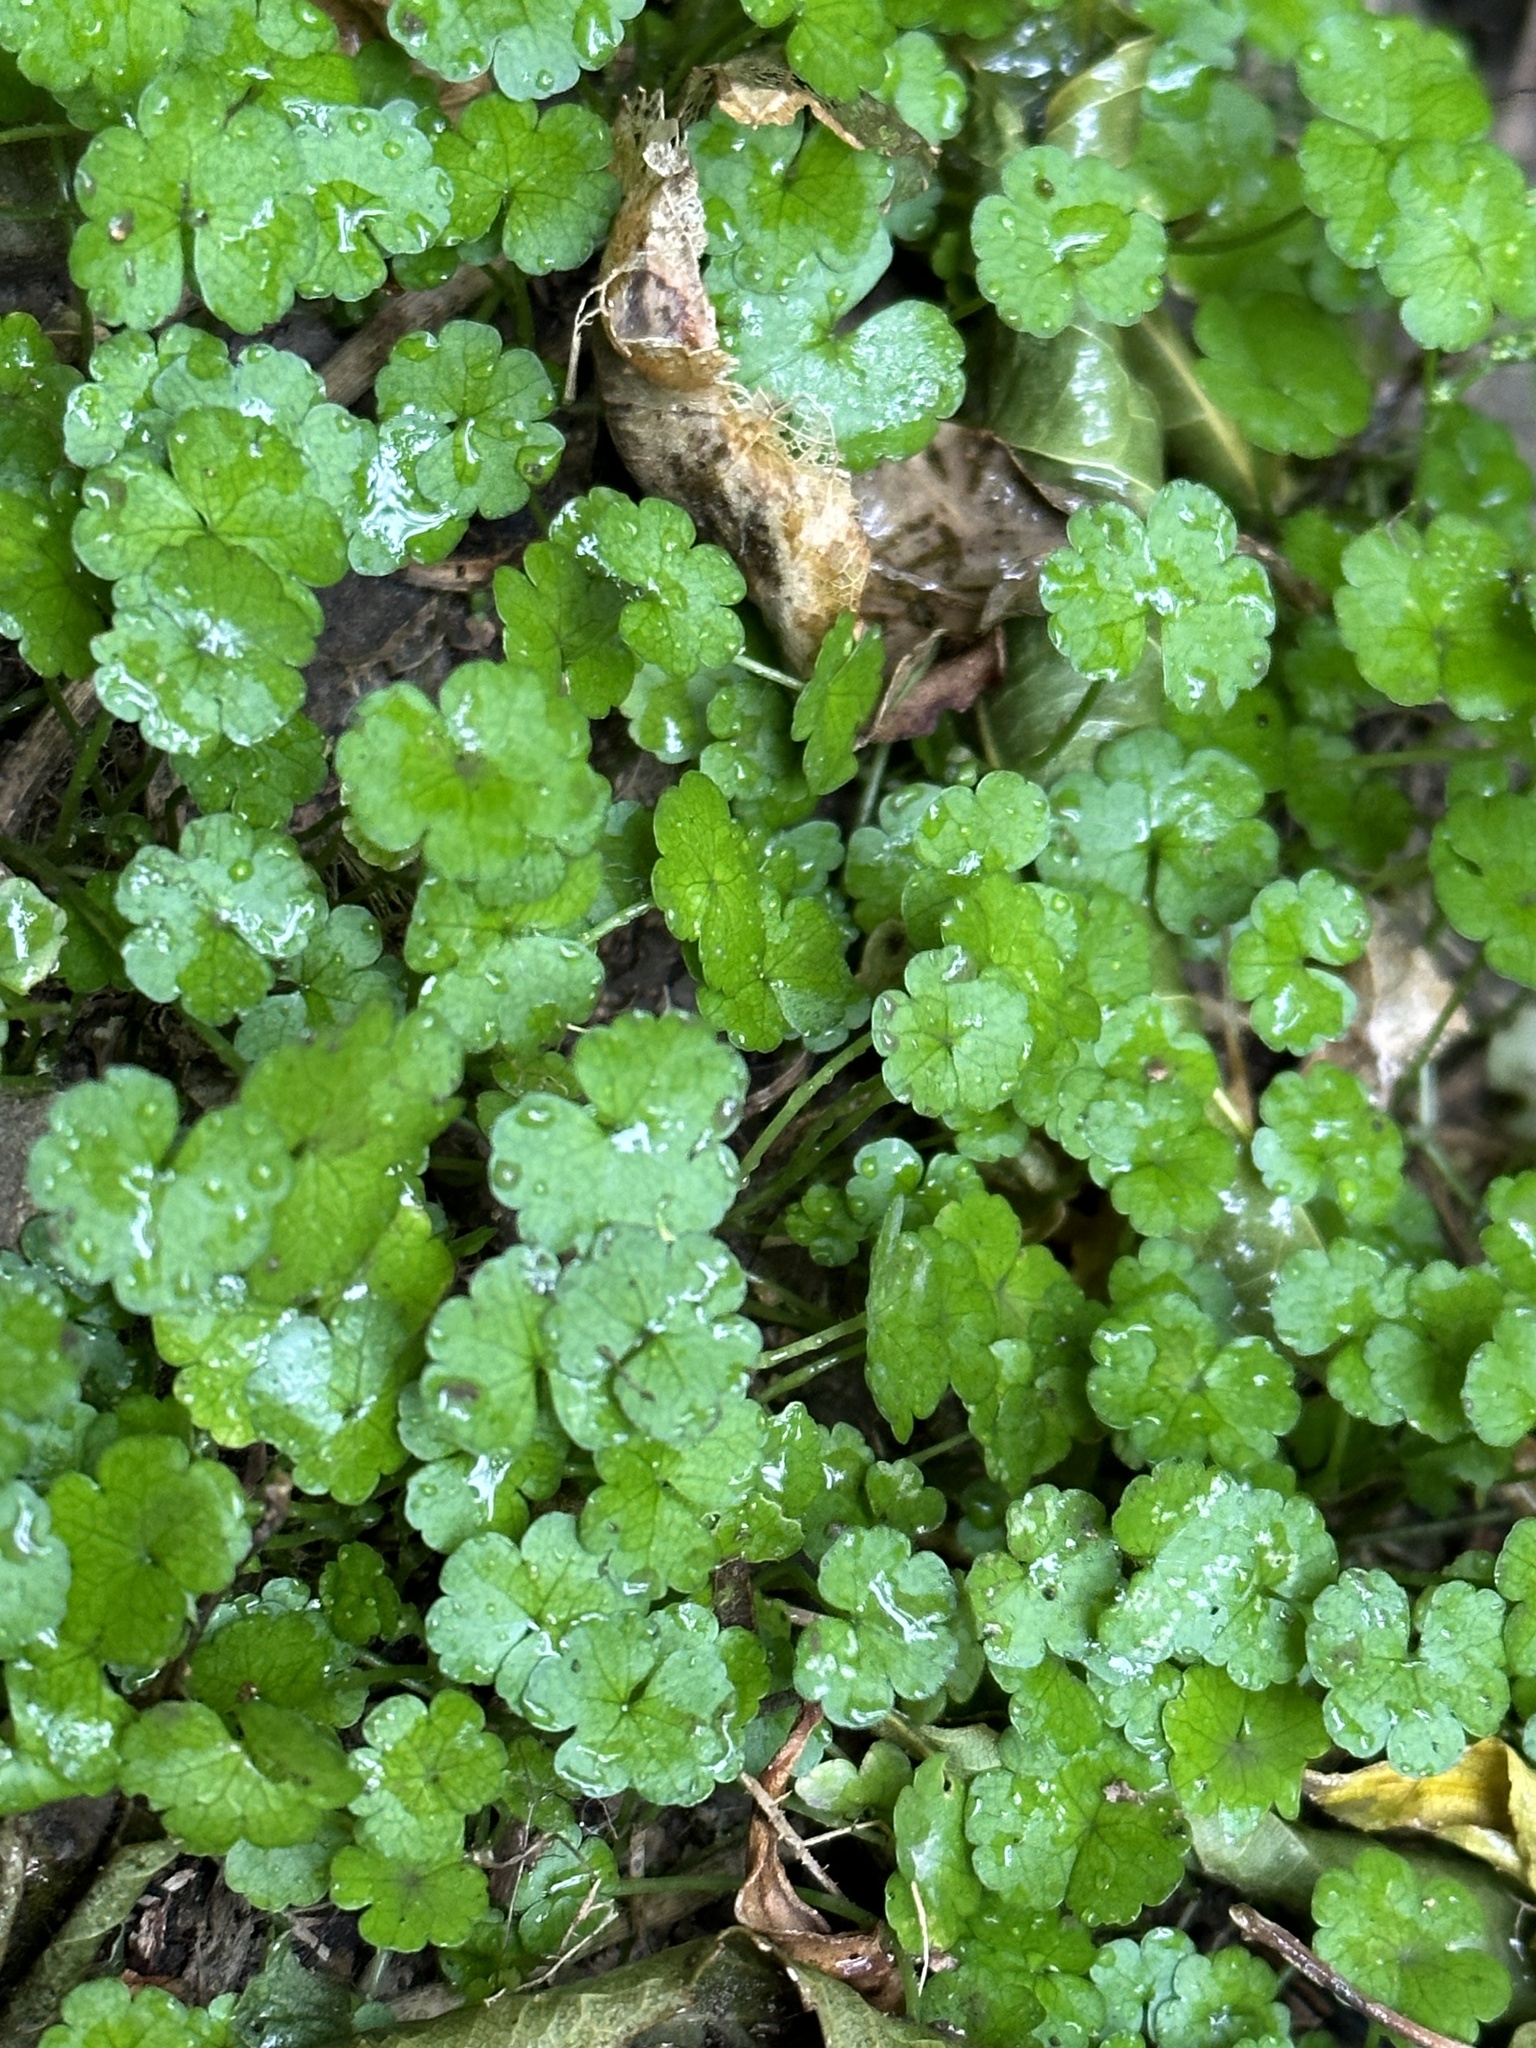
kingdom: Plantae
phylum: Tracheophyta
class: Magnoliopsida
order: Apiales
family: Araliaceae
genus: Hydrocotyle
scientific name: Hydrocotyle heteromeria
